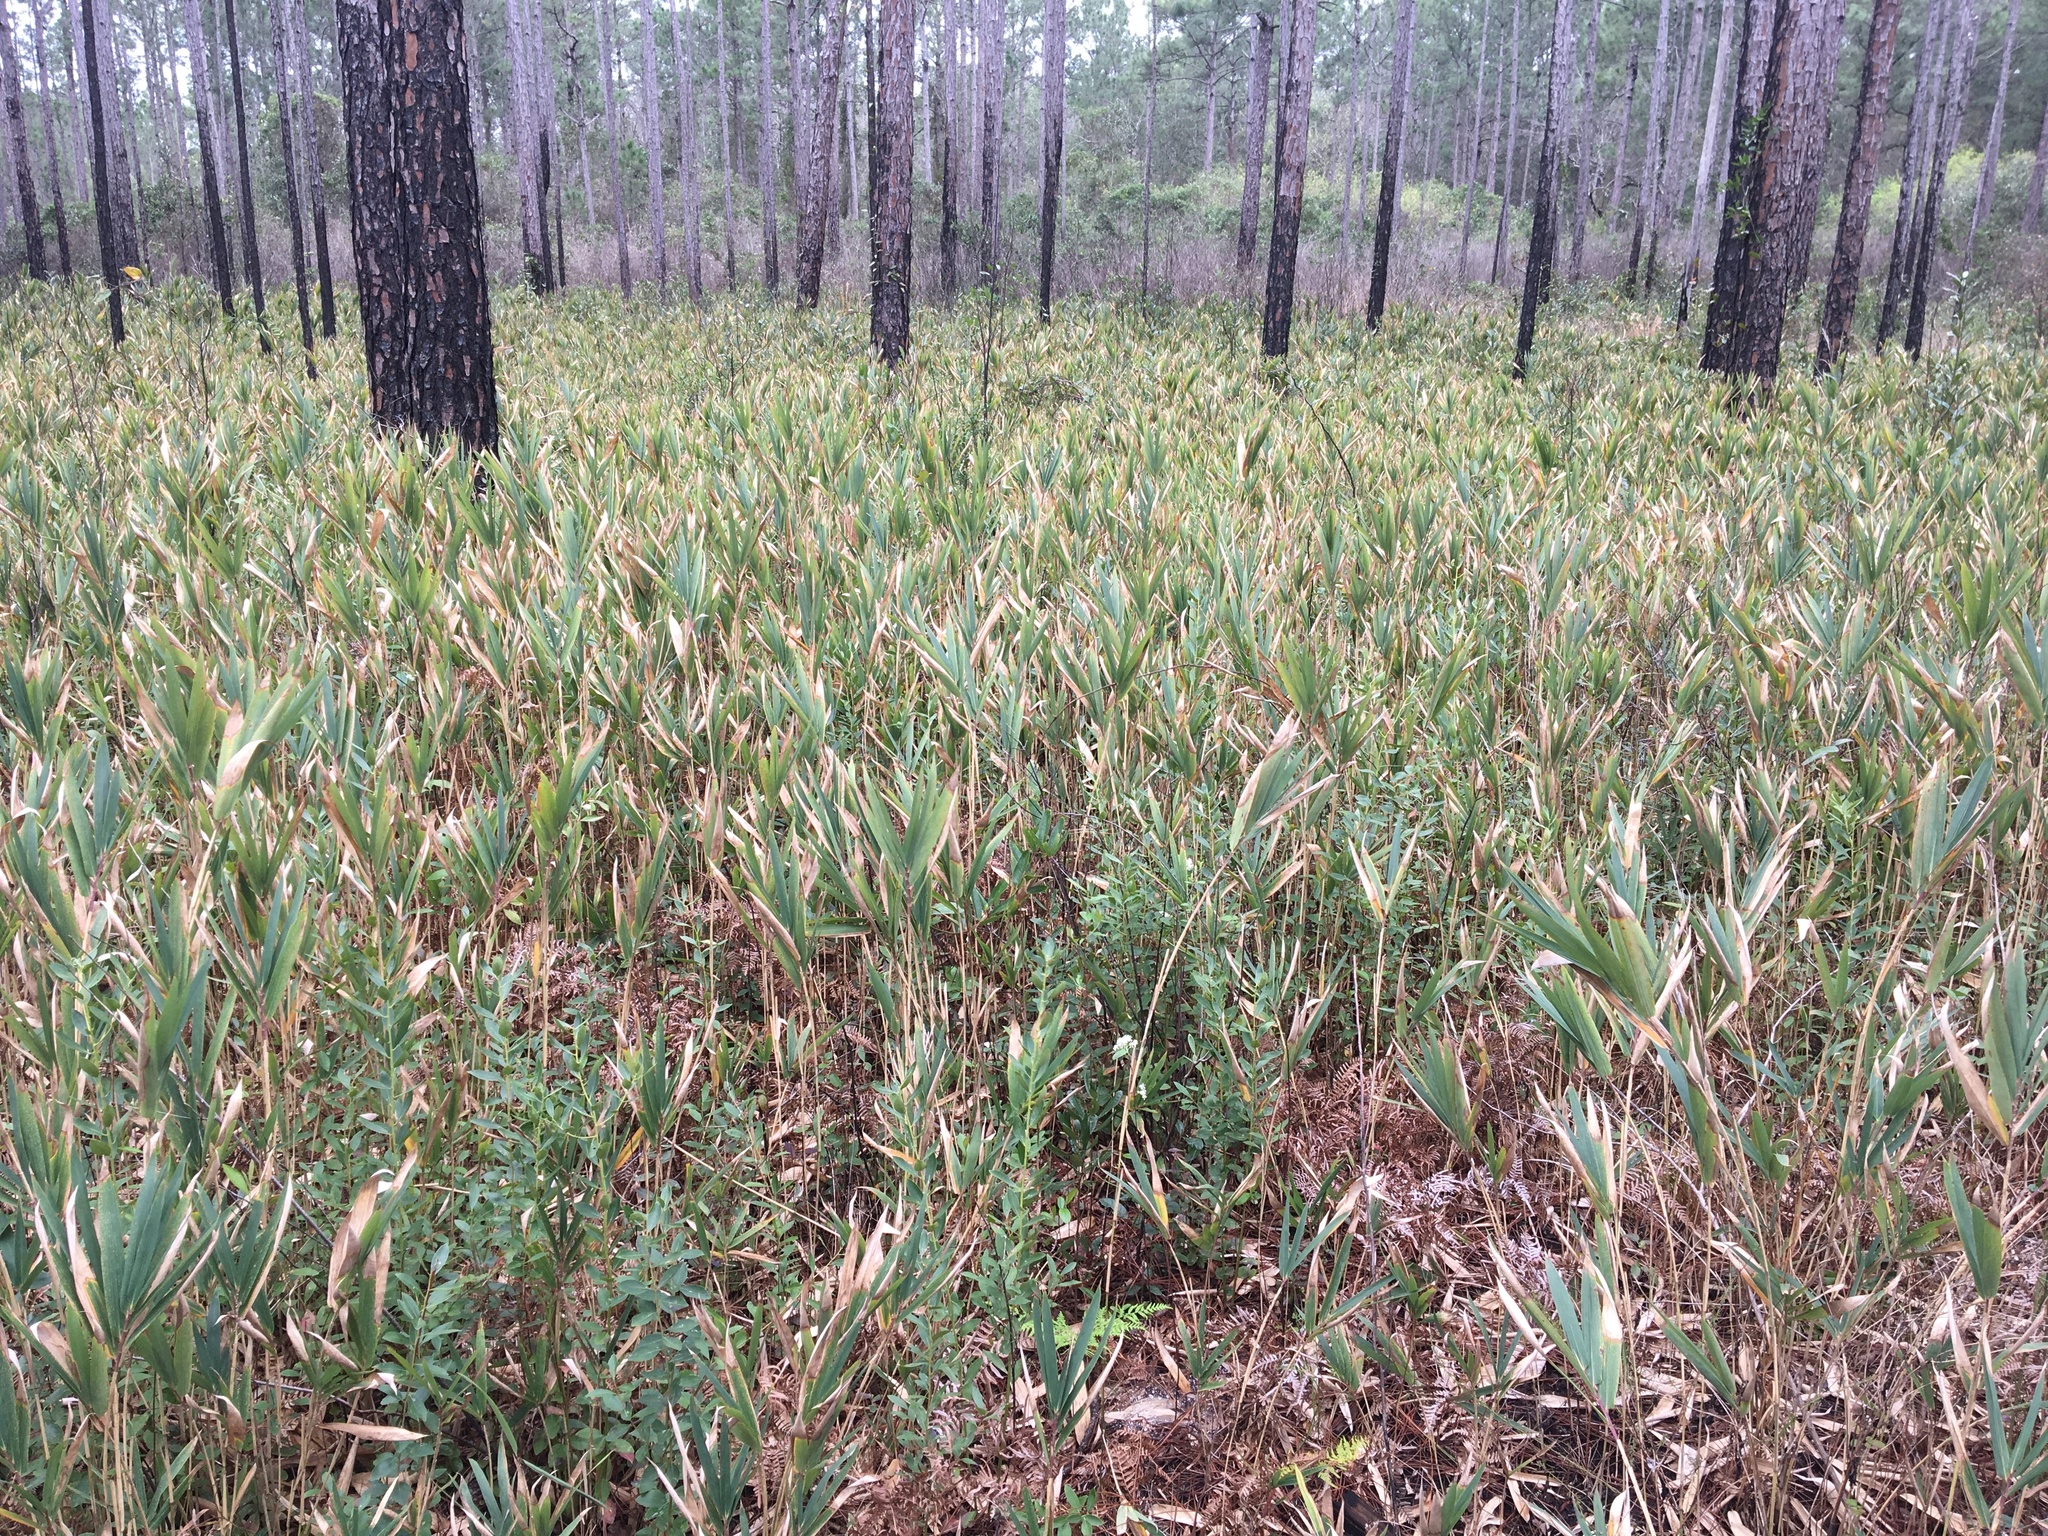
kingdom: Plantae
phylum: Tracheophyta
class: Liliopsida
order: Poales
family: Poaceae
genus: Arundinaria
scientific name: Arundinaria gigantea
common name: Giant cane
